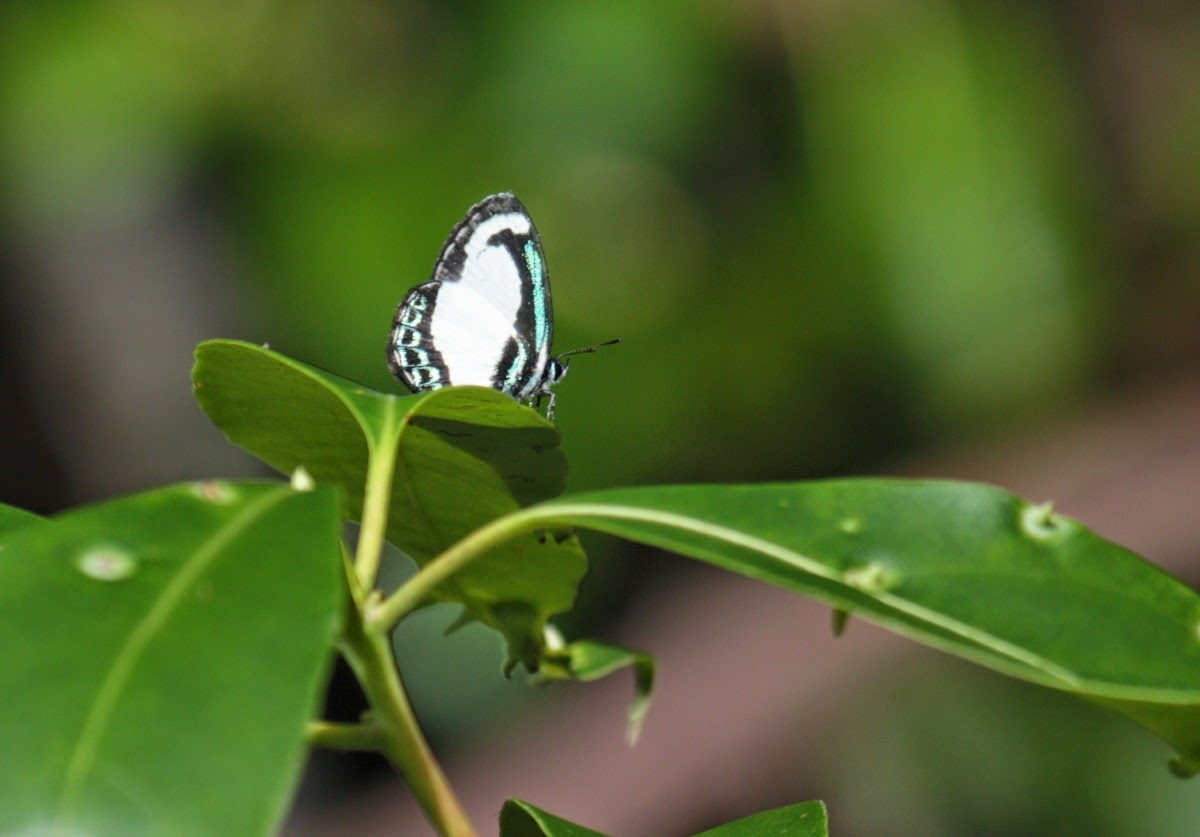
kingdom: Animalia
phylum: Arthropoda
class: Insecta
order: Lepidoptera
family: Lycaenidae
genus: Psychonotis
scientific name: Psychonotis caelius
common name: Small green banded blue
